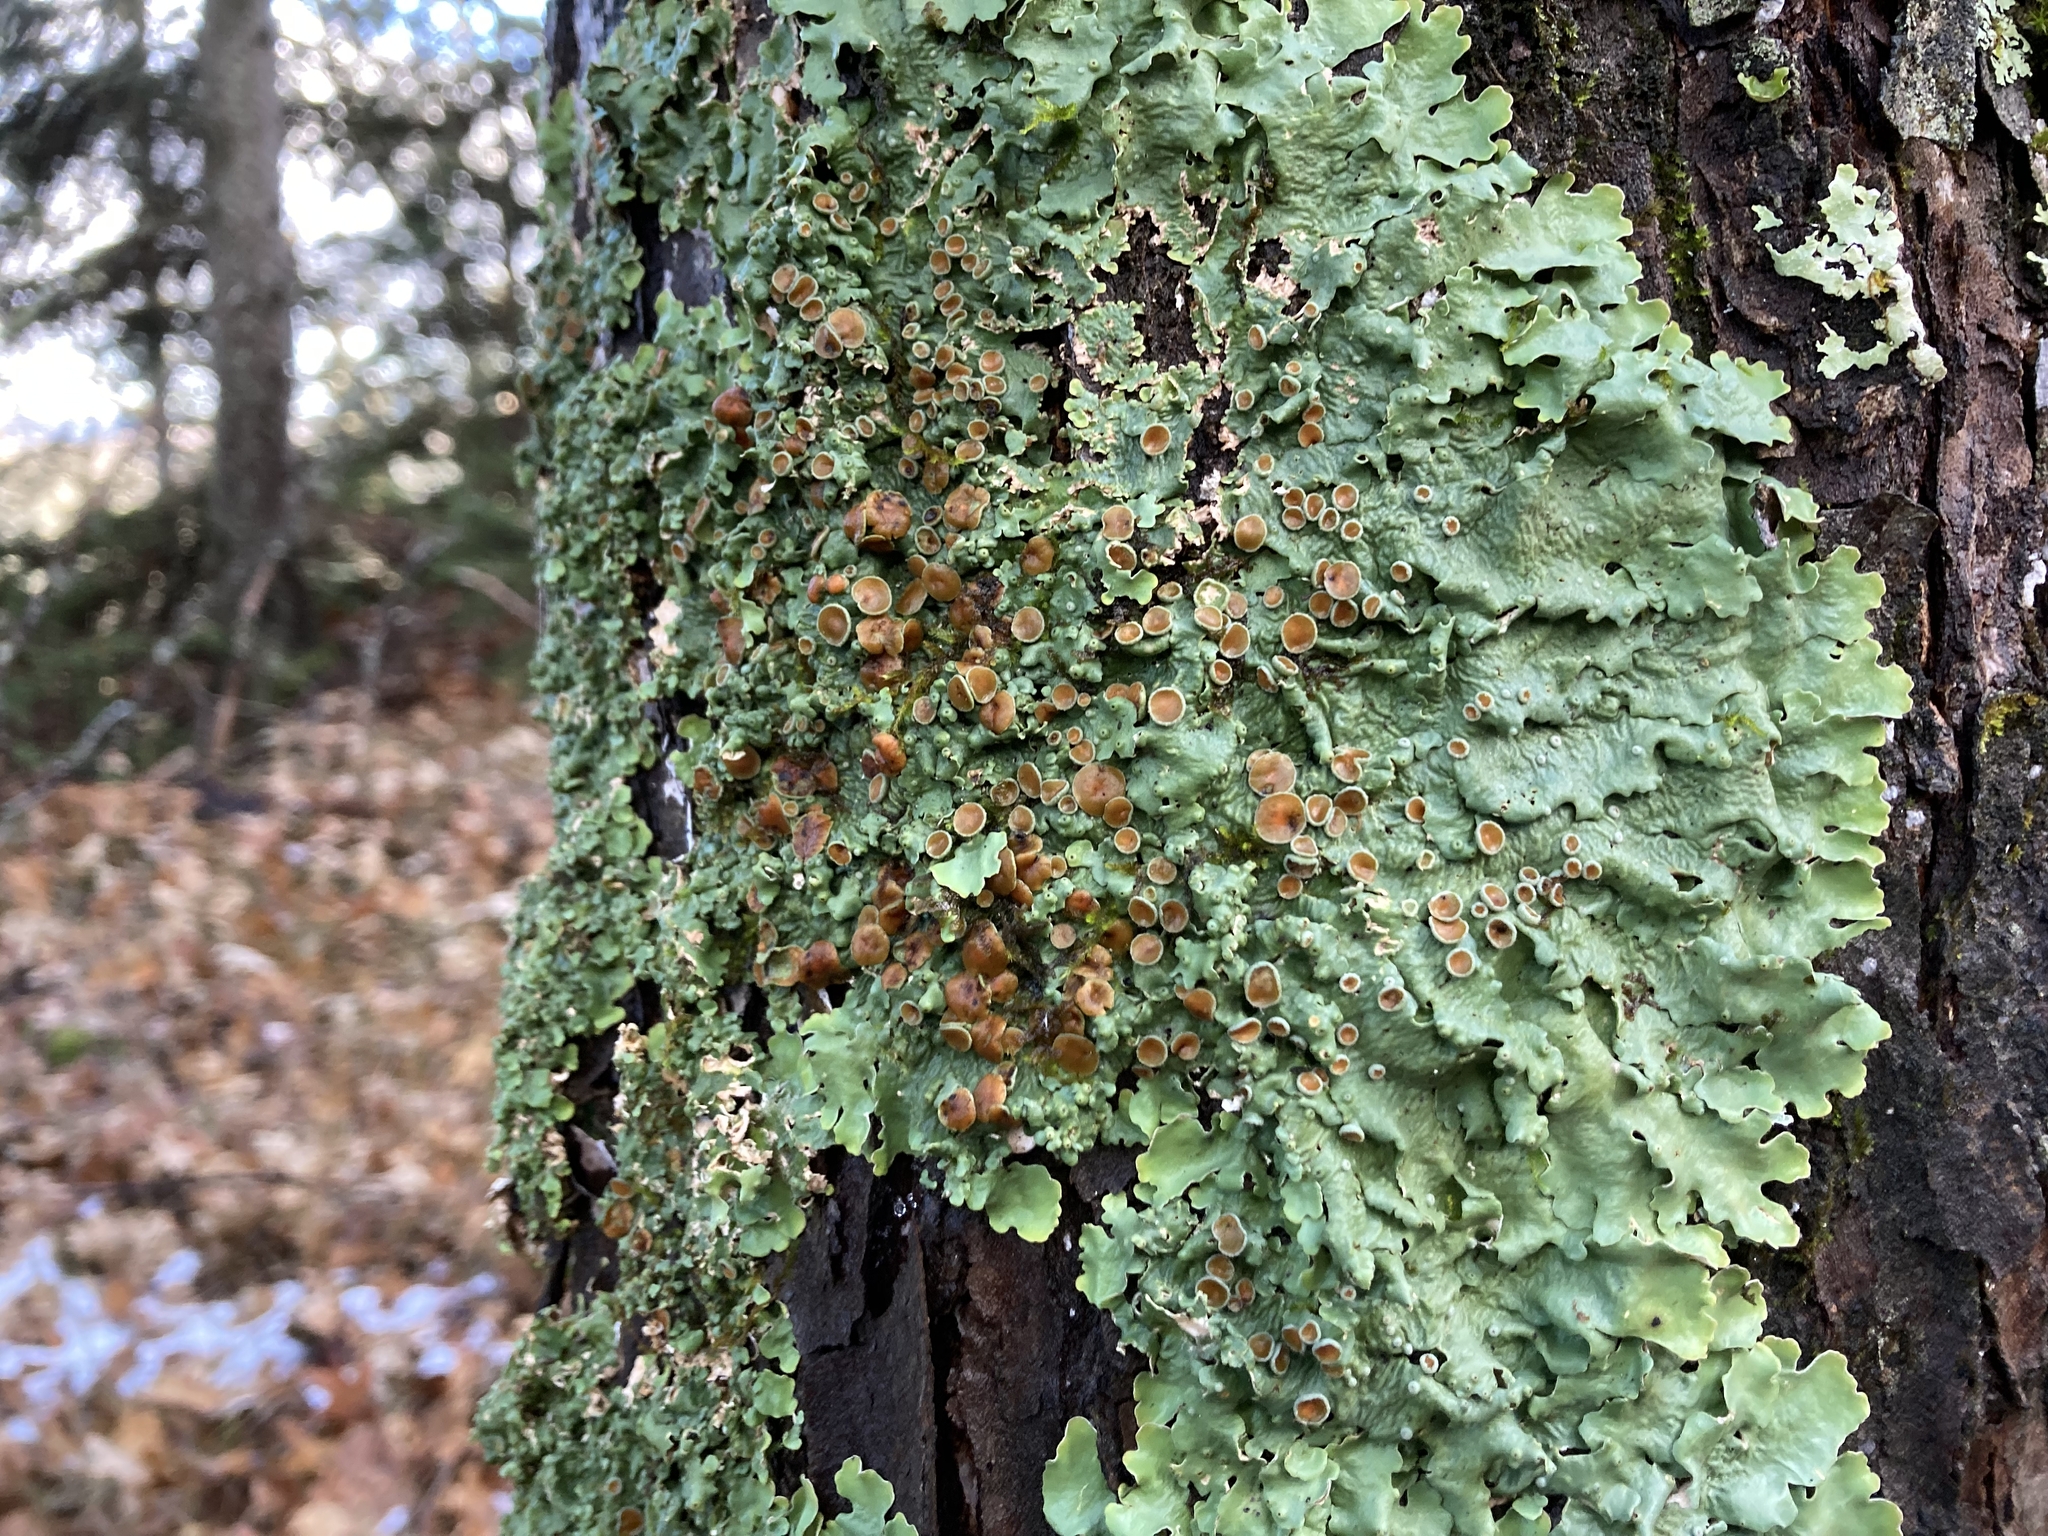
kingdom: Fungi
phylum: Ascomycota
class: Lecanoromycetes
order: Peltigerales
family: Lobariaceae
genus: Ricasolia
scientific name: Ricasolia quercizans
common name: Smooth lungwort
